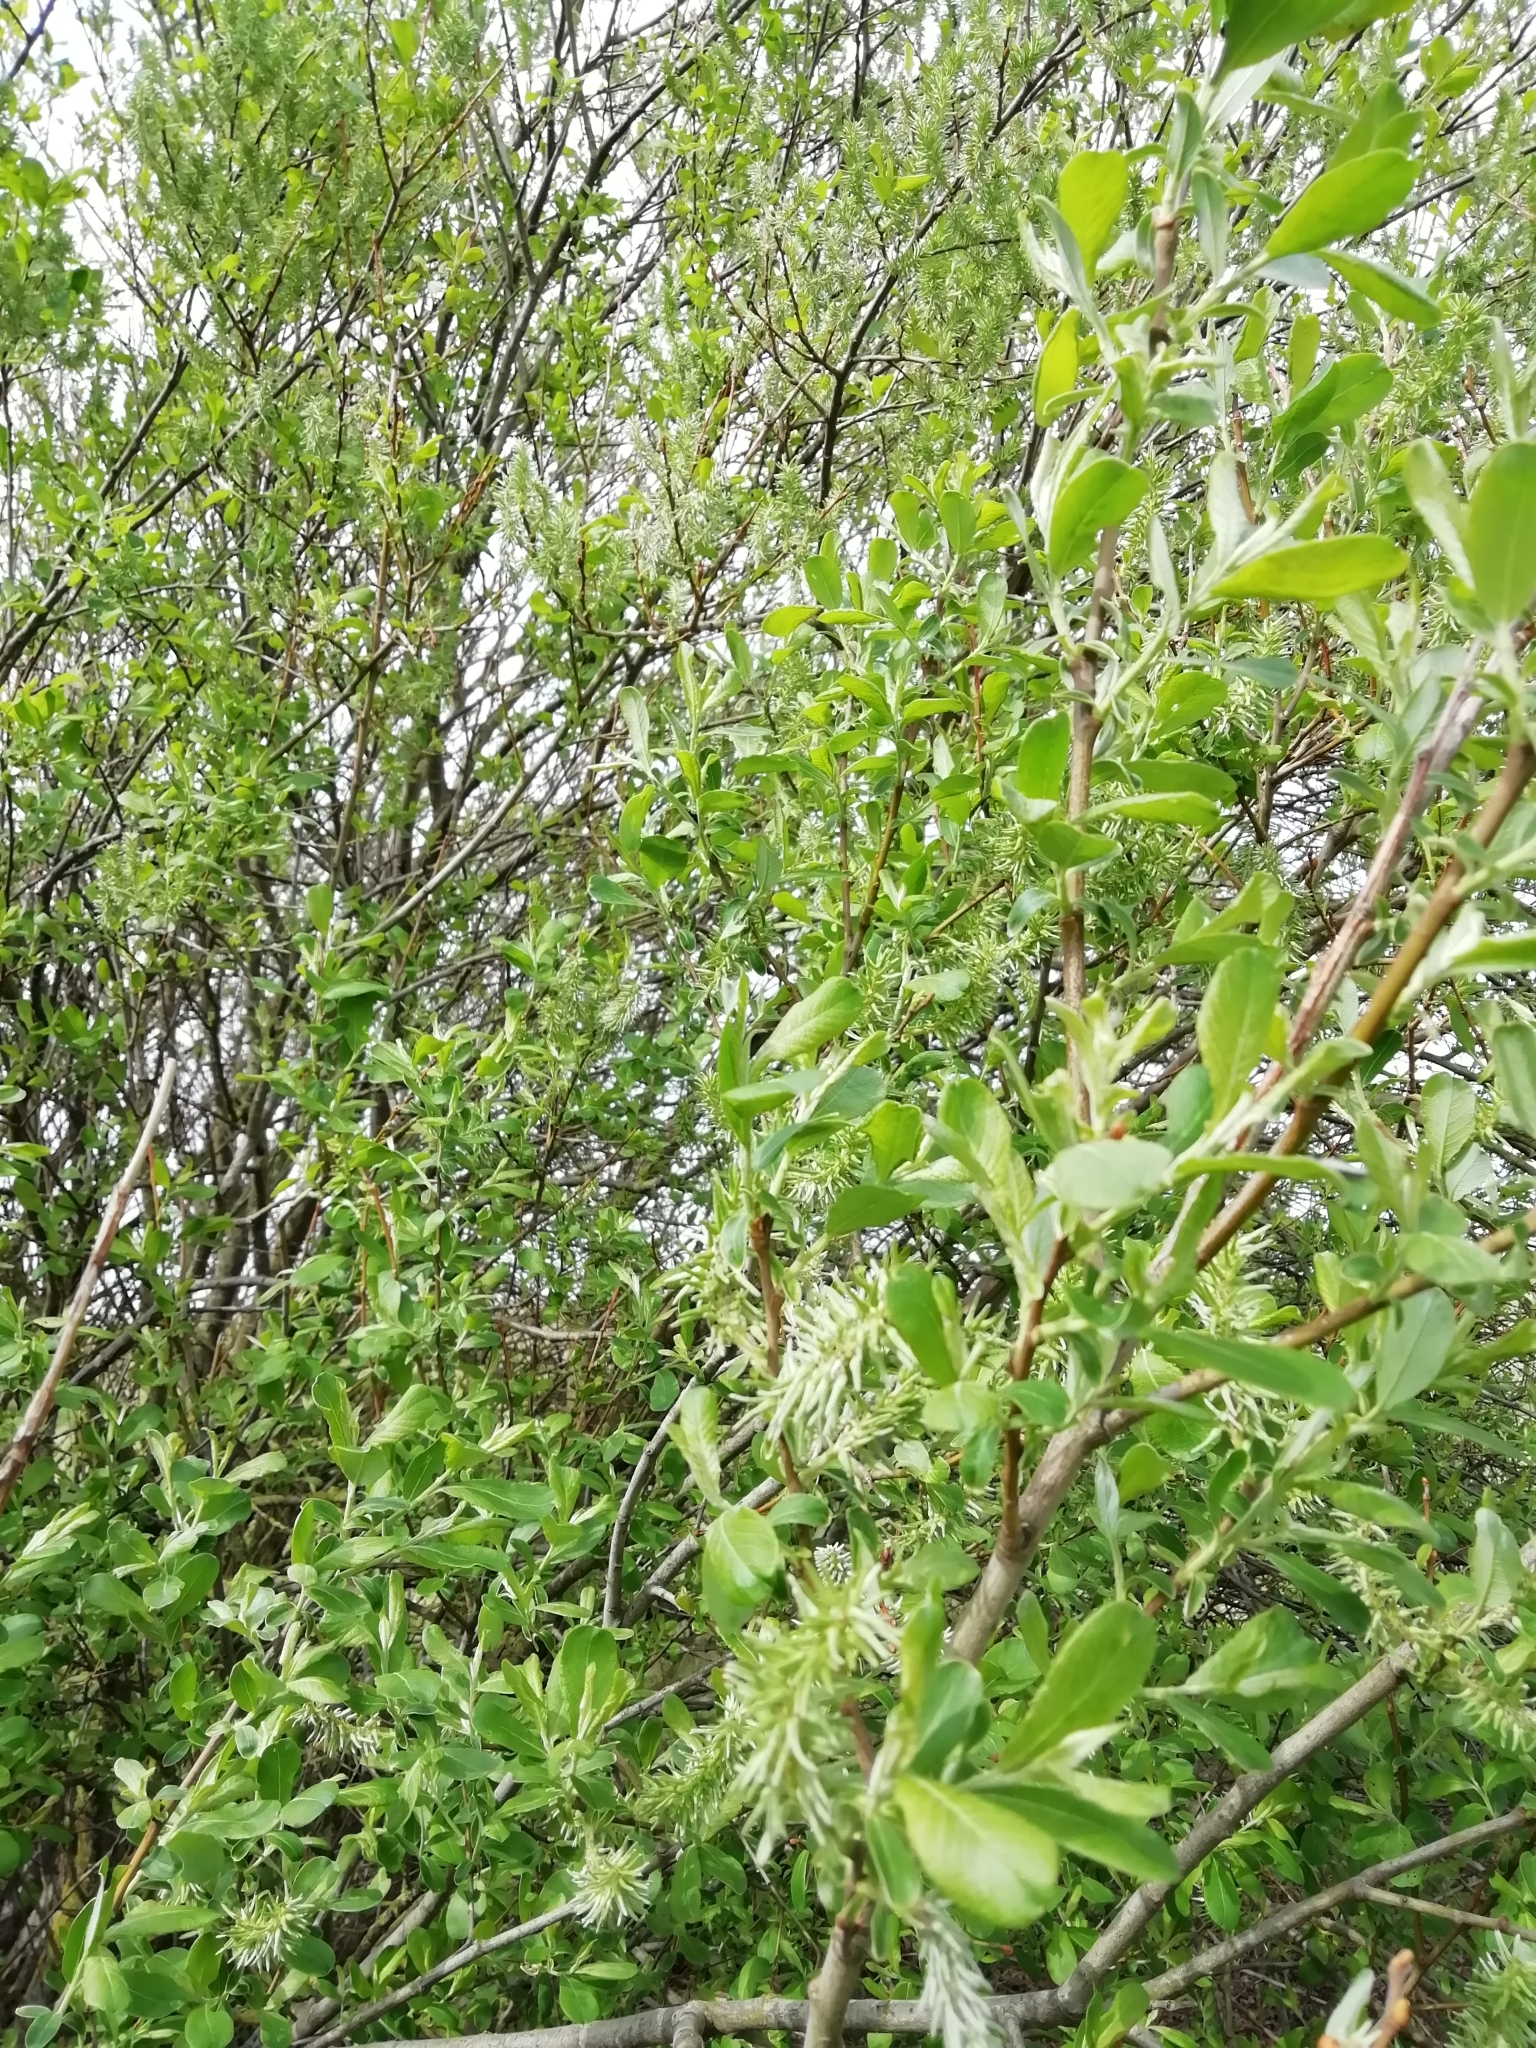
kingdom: Plantae
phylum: Tracheophyta
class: Magnoliopsida
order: Malpighiales
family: Salicaceae
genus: Salix
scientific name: Salix cinerea
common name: Common sallow
